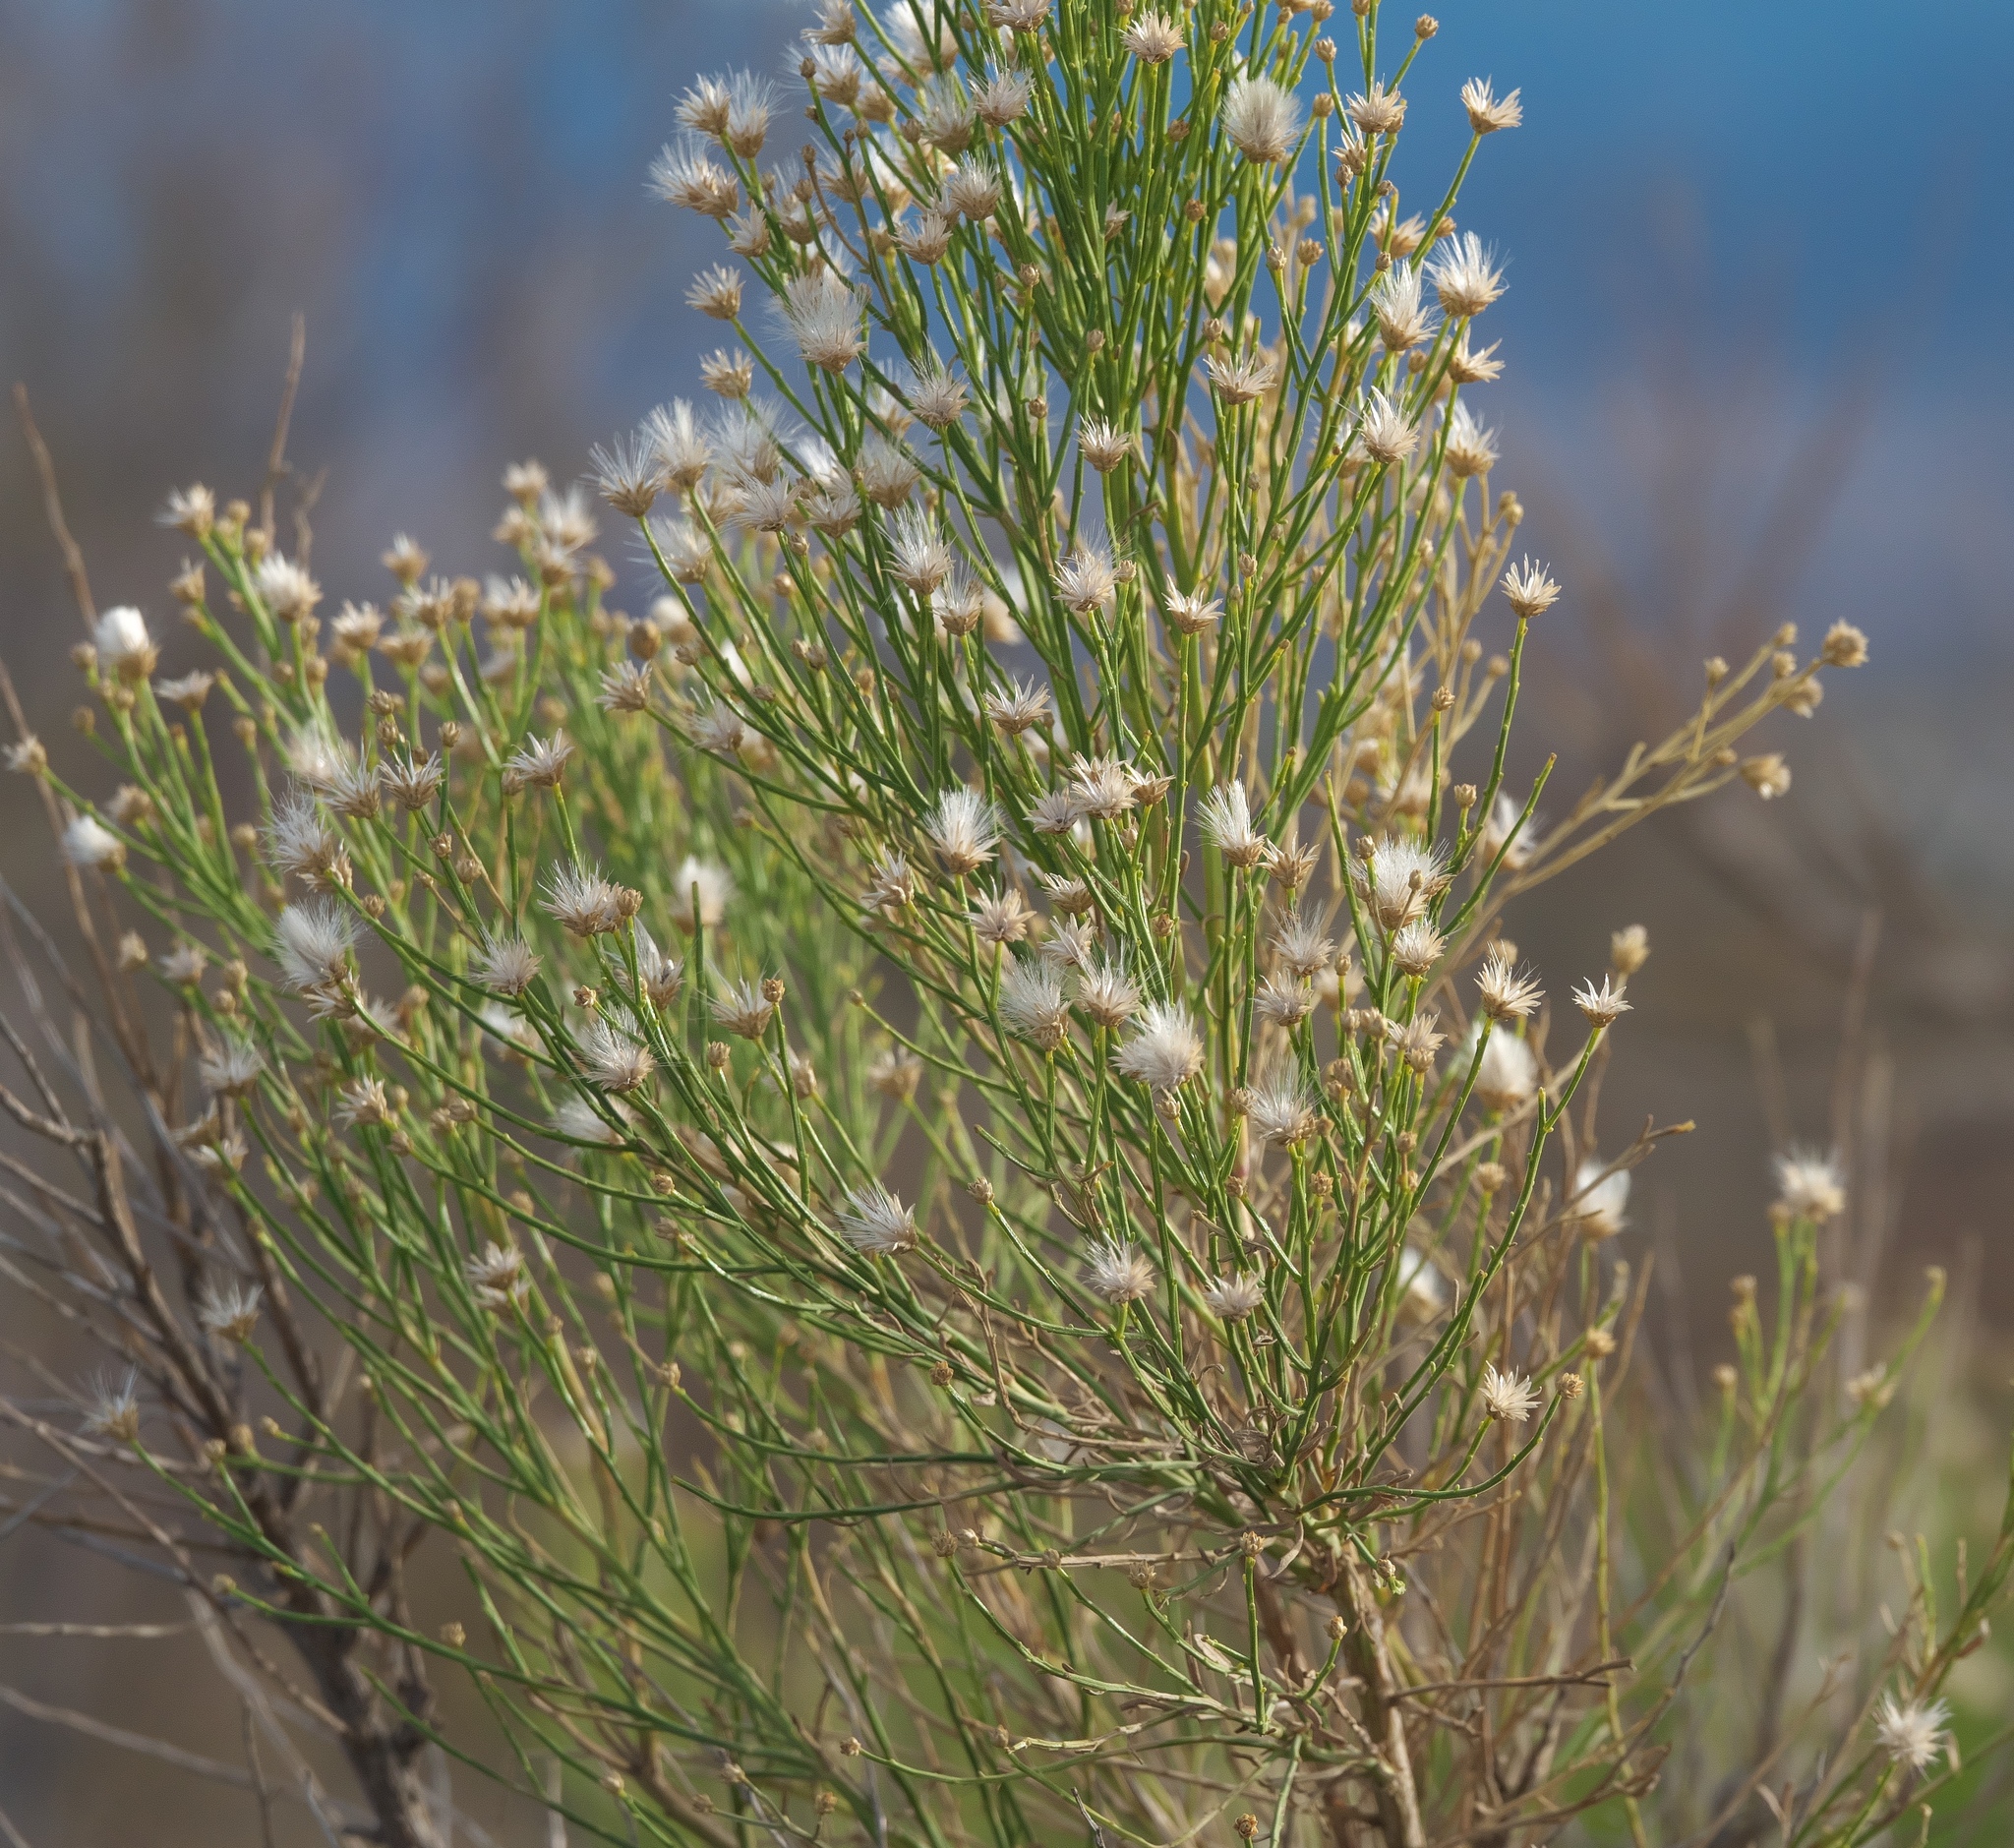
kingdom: Plantae
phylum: Tracheophyta
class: Magnoliopsida
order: Asterales
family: Asteraceae
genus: Baccharis
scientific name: Baccharis sarothroides
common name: Desert-broom
